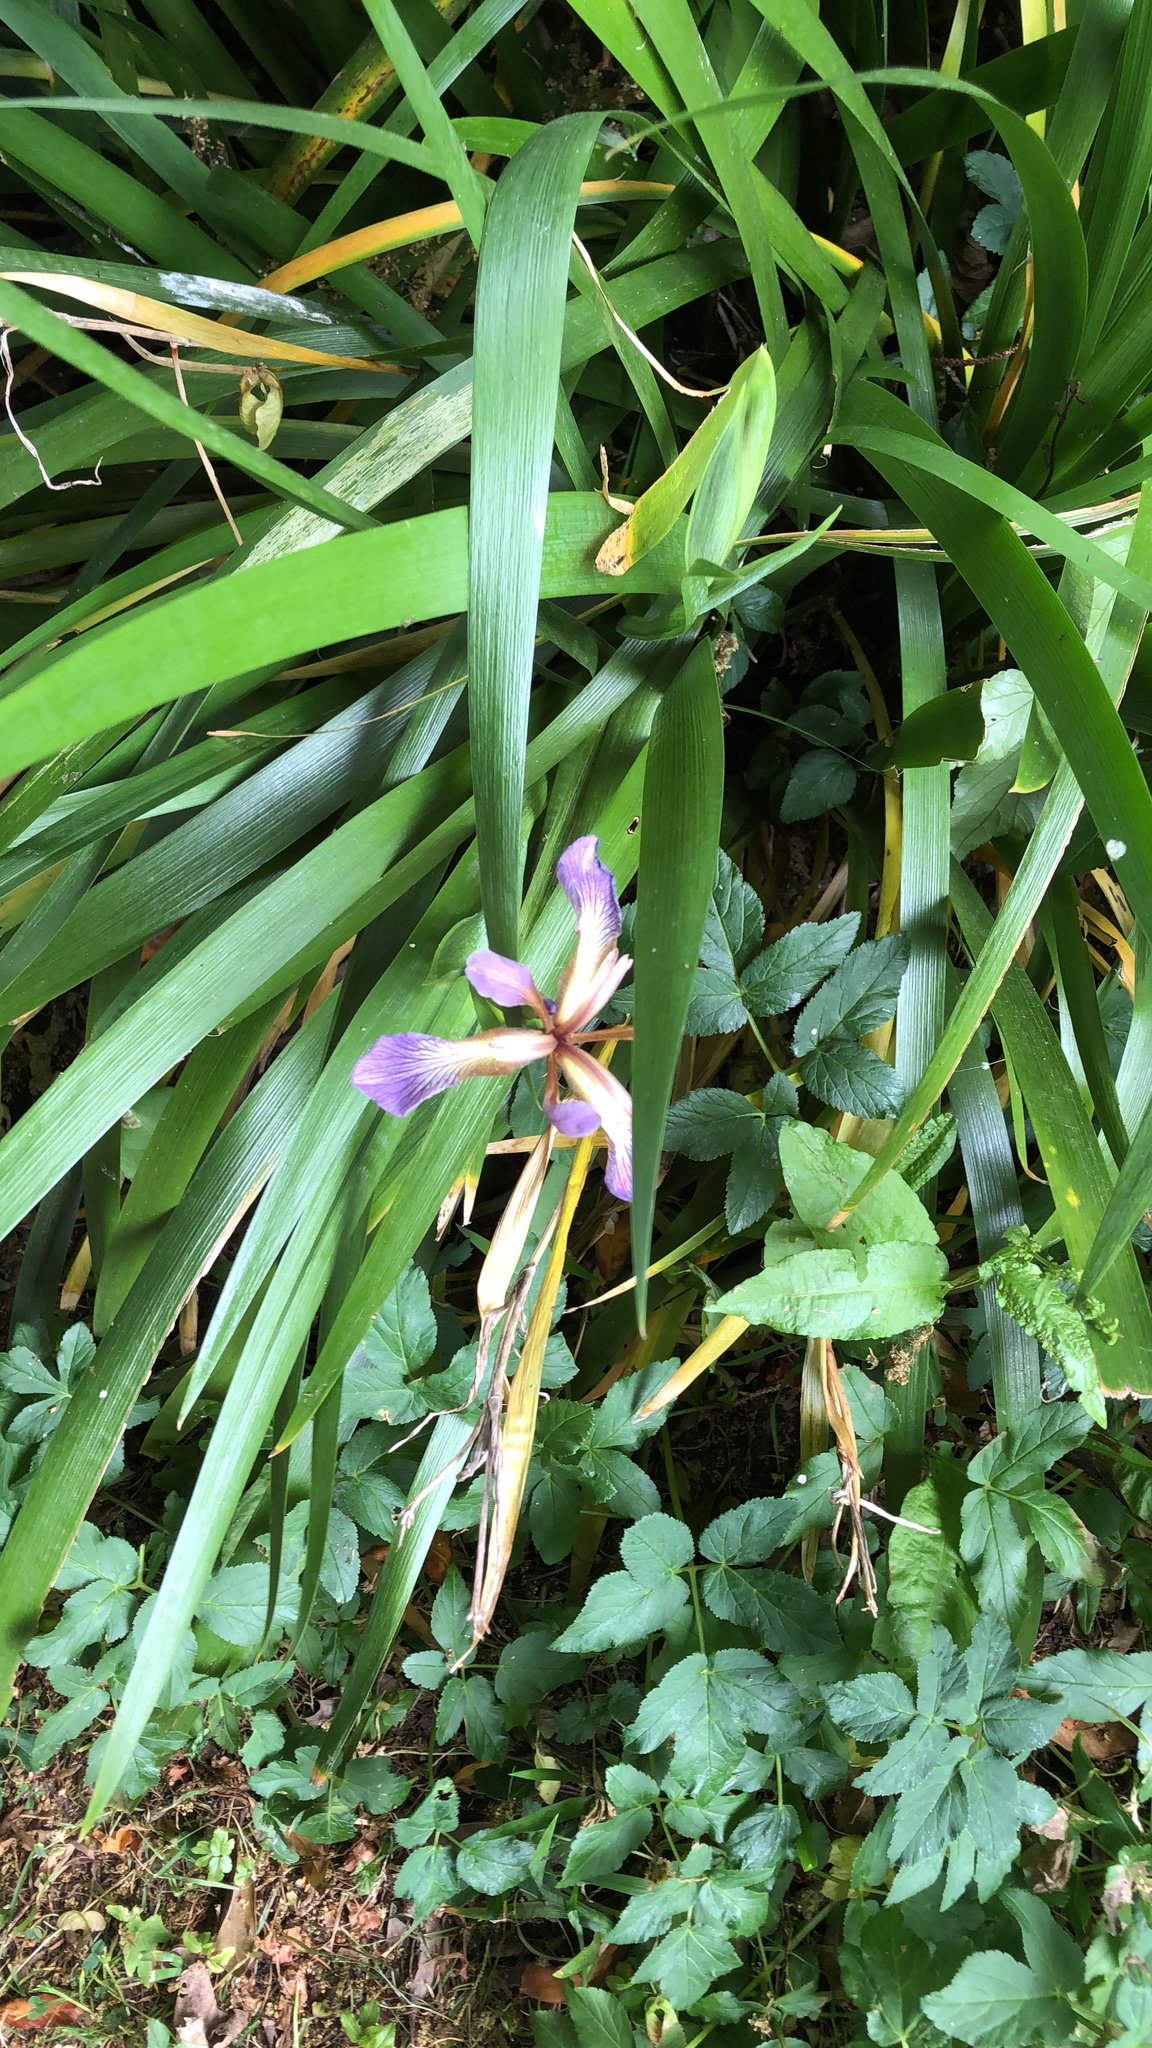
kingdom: Plantae
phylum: Tracheophyta
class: Liliopsida
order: Asparagales
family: Iridaceae
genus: Iris
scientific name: Iris foetidissima
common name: Stinking iris
